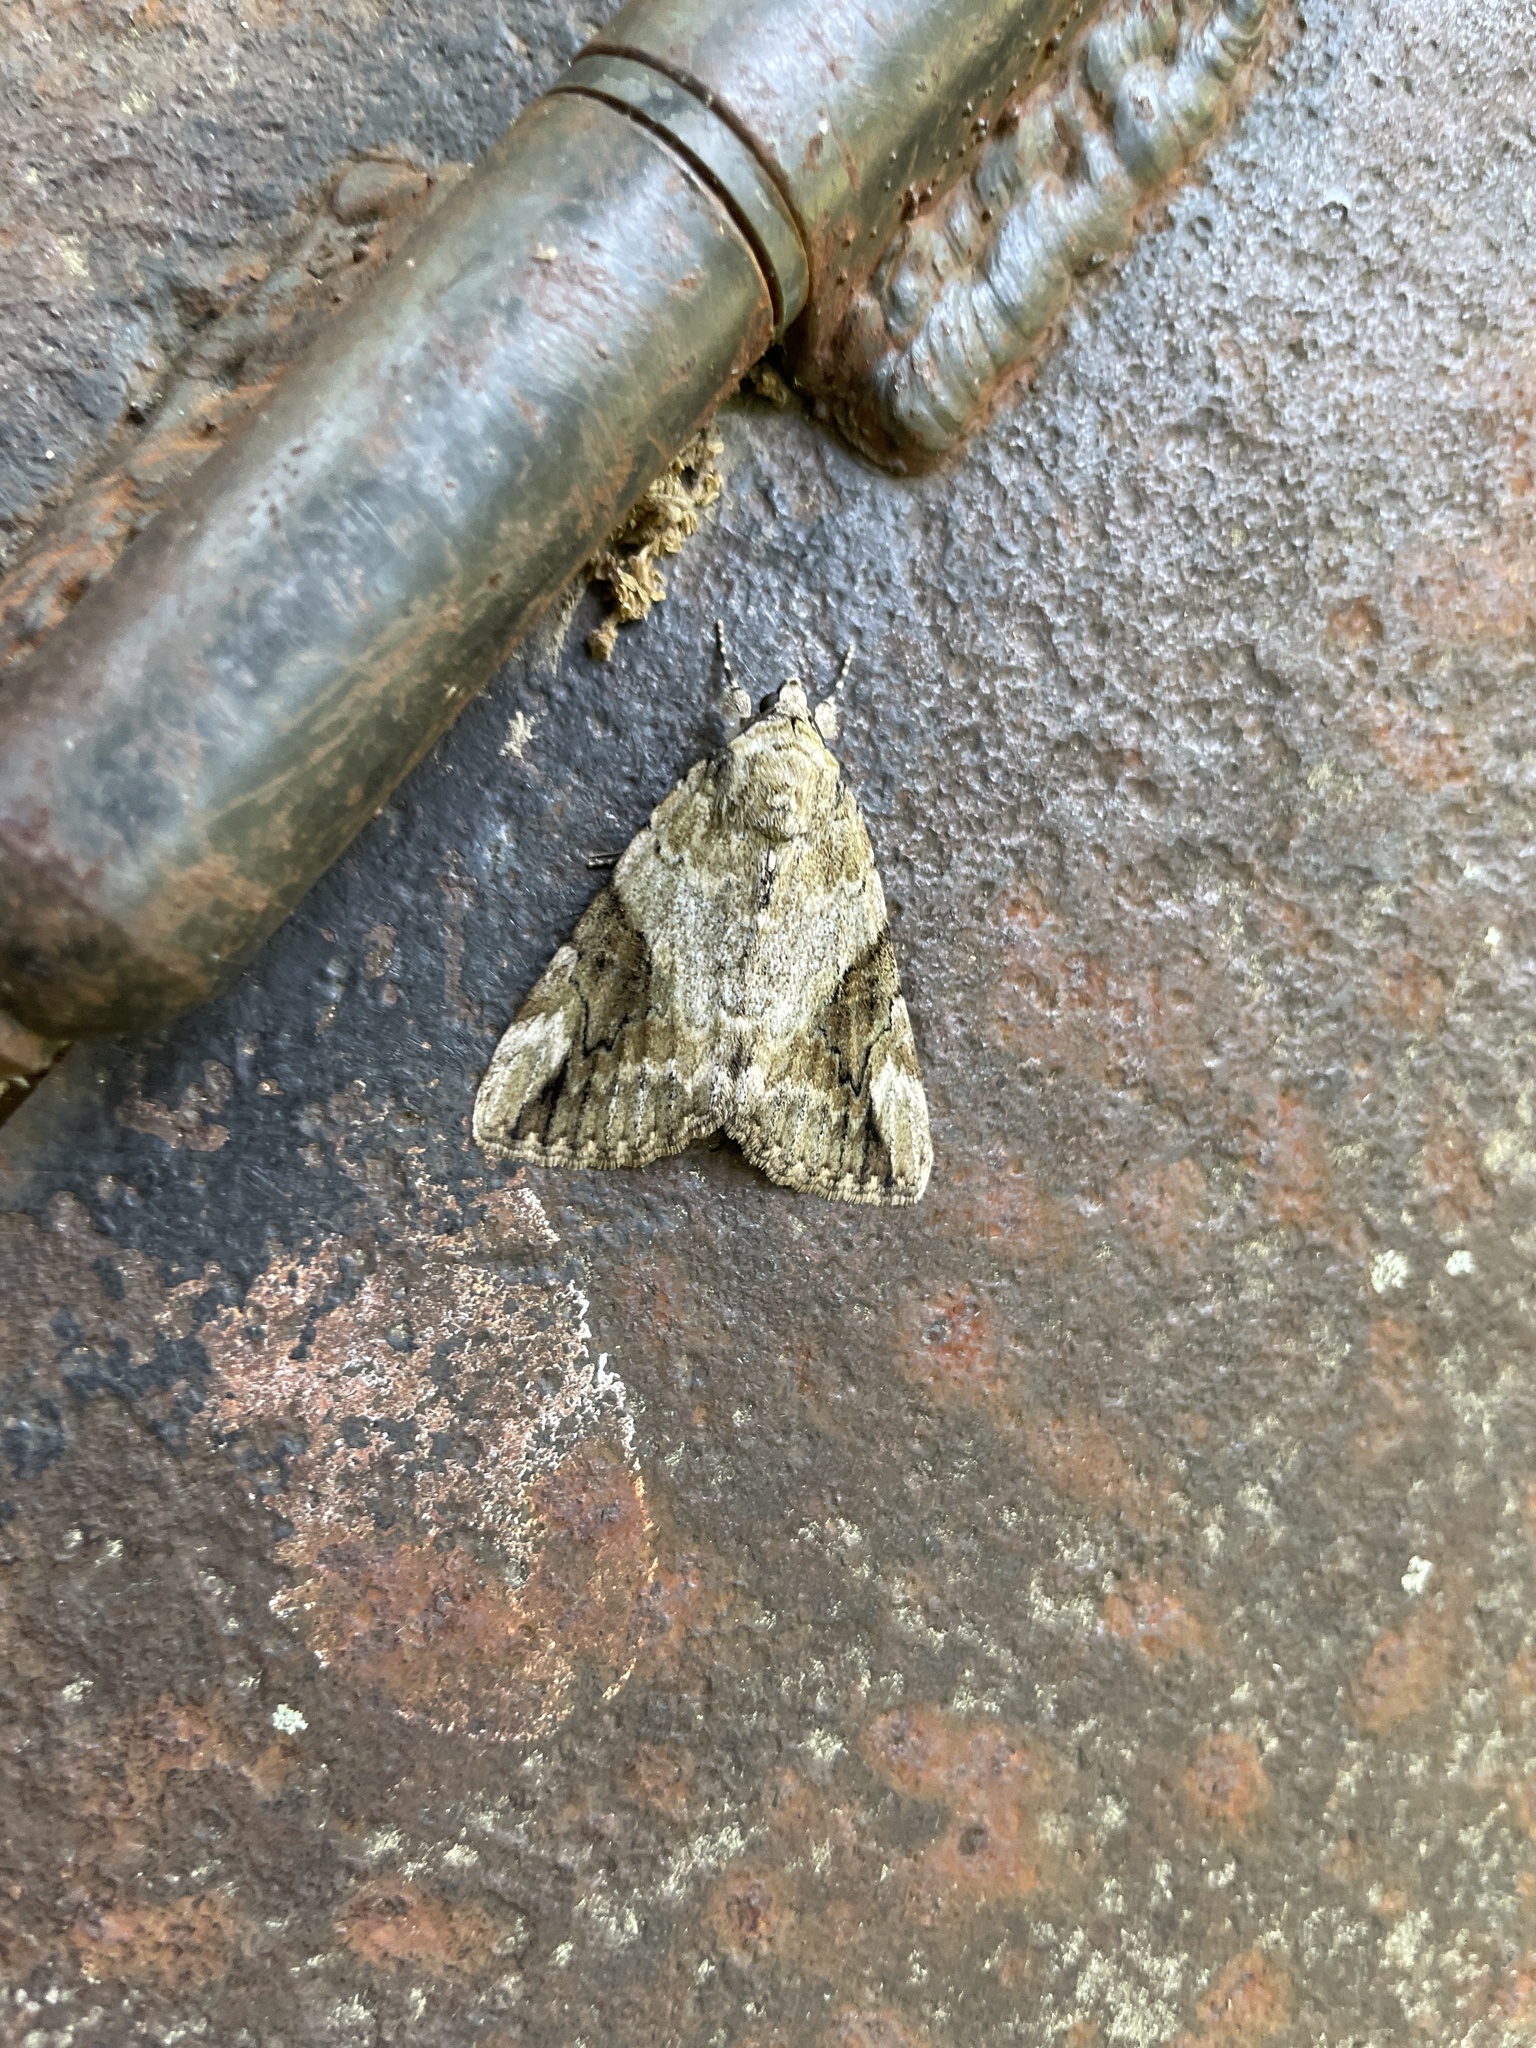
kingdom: Animalia
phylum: Arthropoda
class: Insecta
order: Lepidoptera
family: Erebidae
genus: Catocala
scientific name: Catocala micronympha
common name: Little nymph underwing
